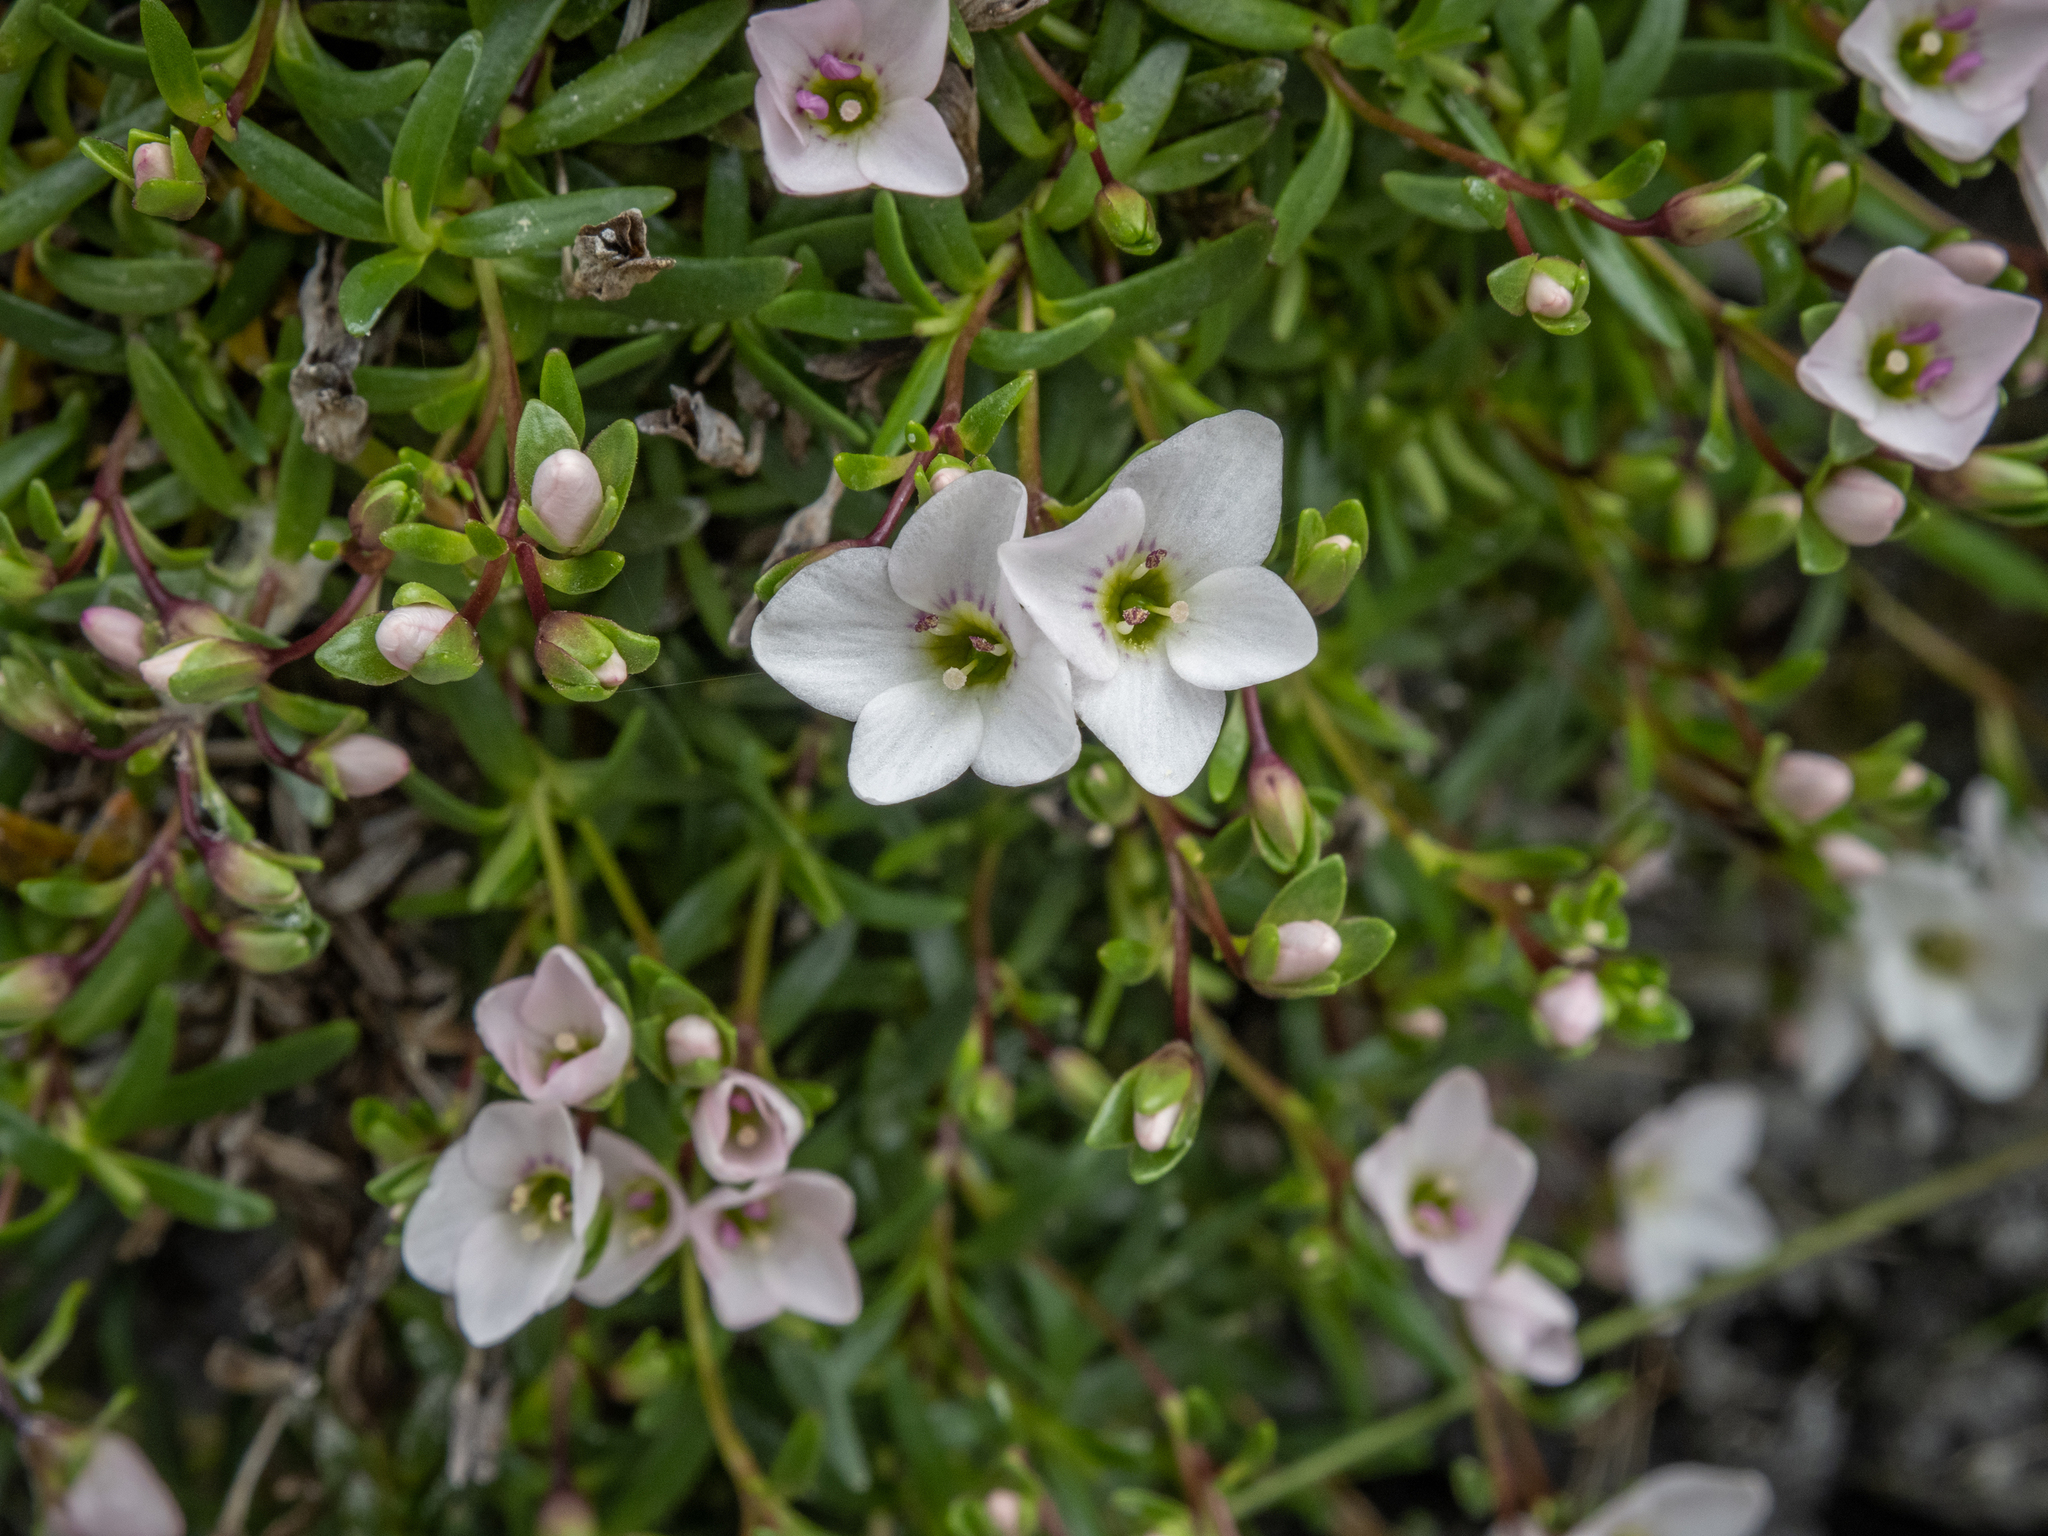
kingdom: Plantae
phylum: Tracheophyta
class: Magnoliopsida
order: Lamiales
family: Plantaginaceae
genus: Veronica
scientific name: Veronica colostylis
